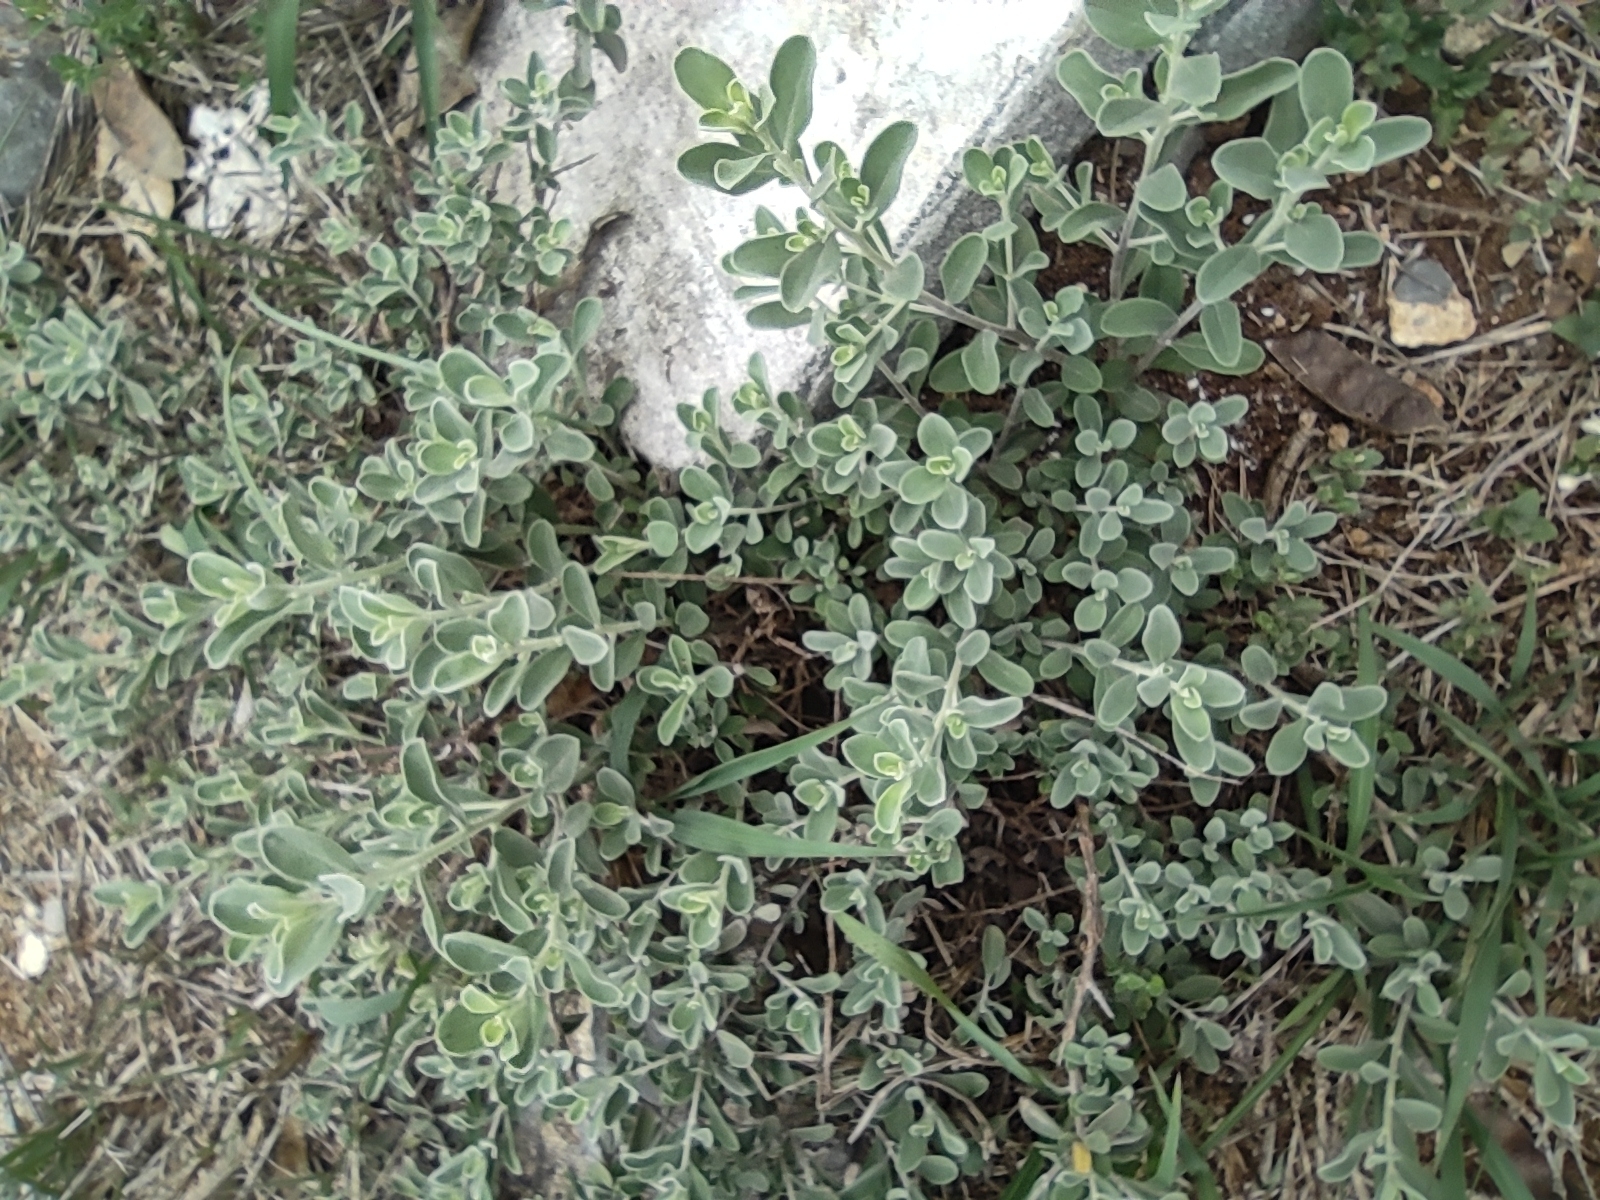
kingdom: Plantae
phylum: Tracheophyta
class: Magnoliopsida
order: Lamiales
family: Scrophulariaceae
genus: Leucophyllum
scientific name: Leucophyllum frutescens
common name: Texas silverleaf
